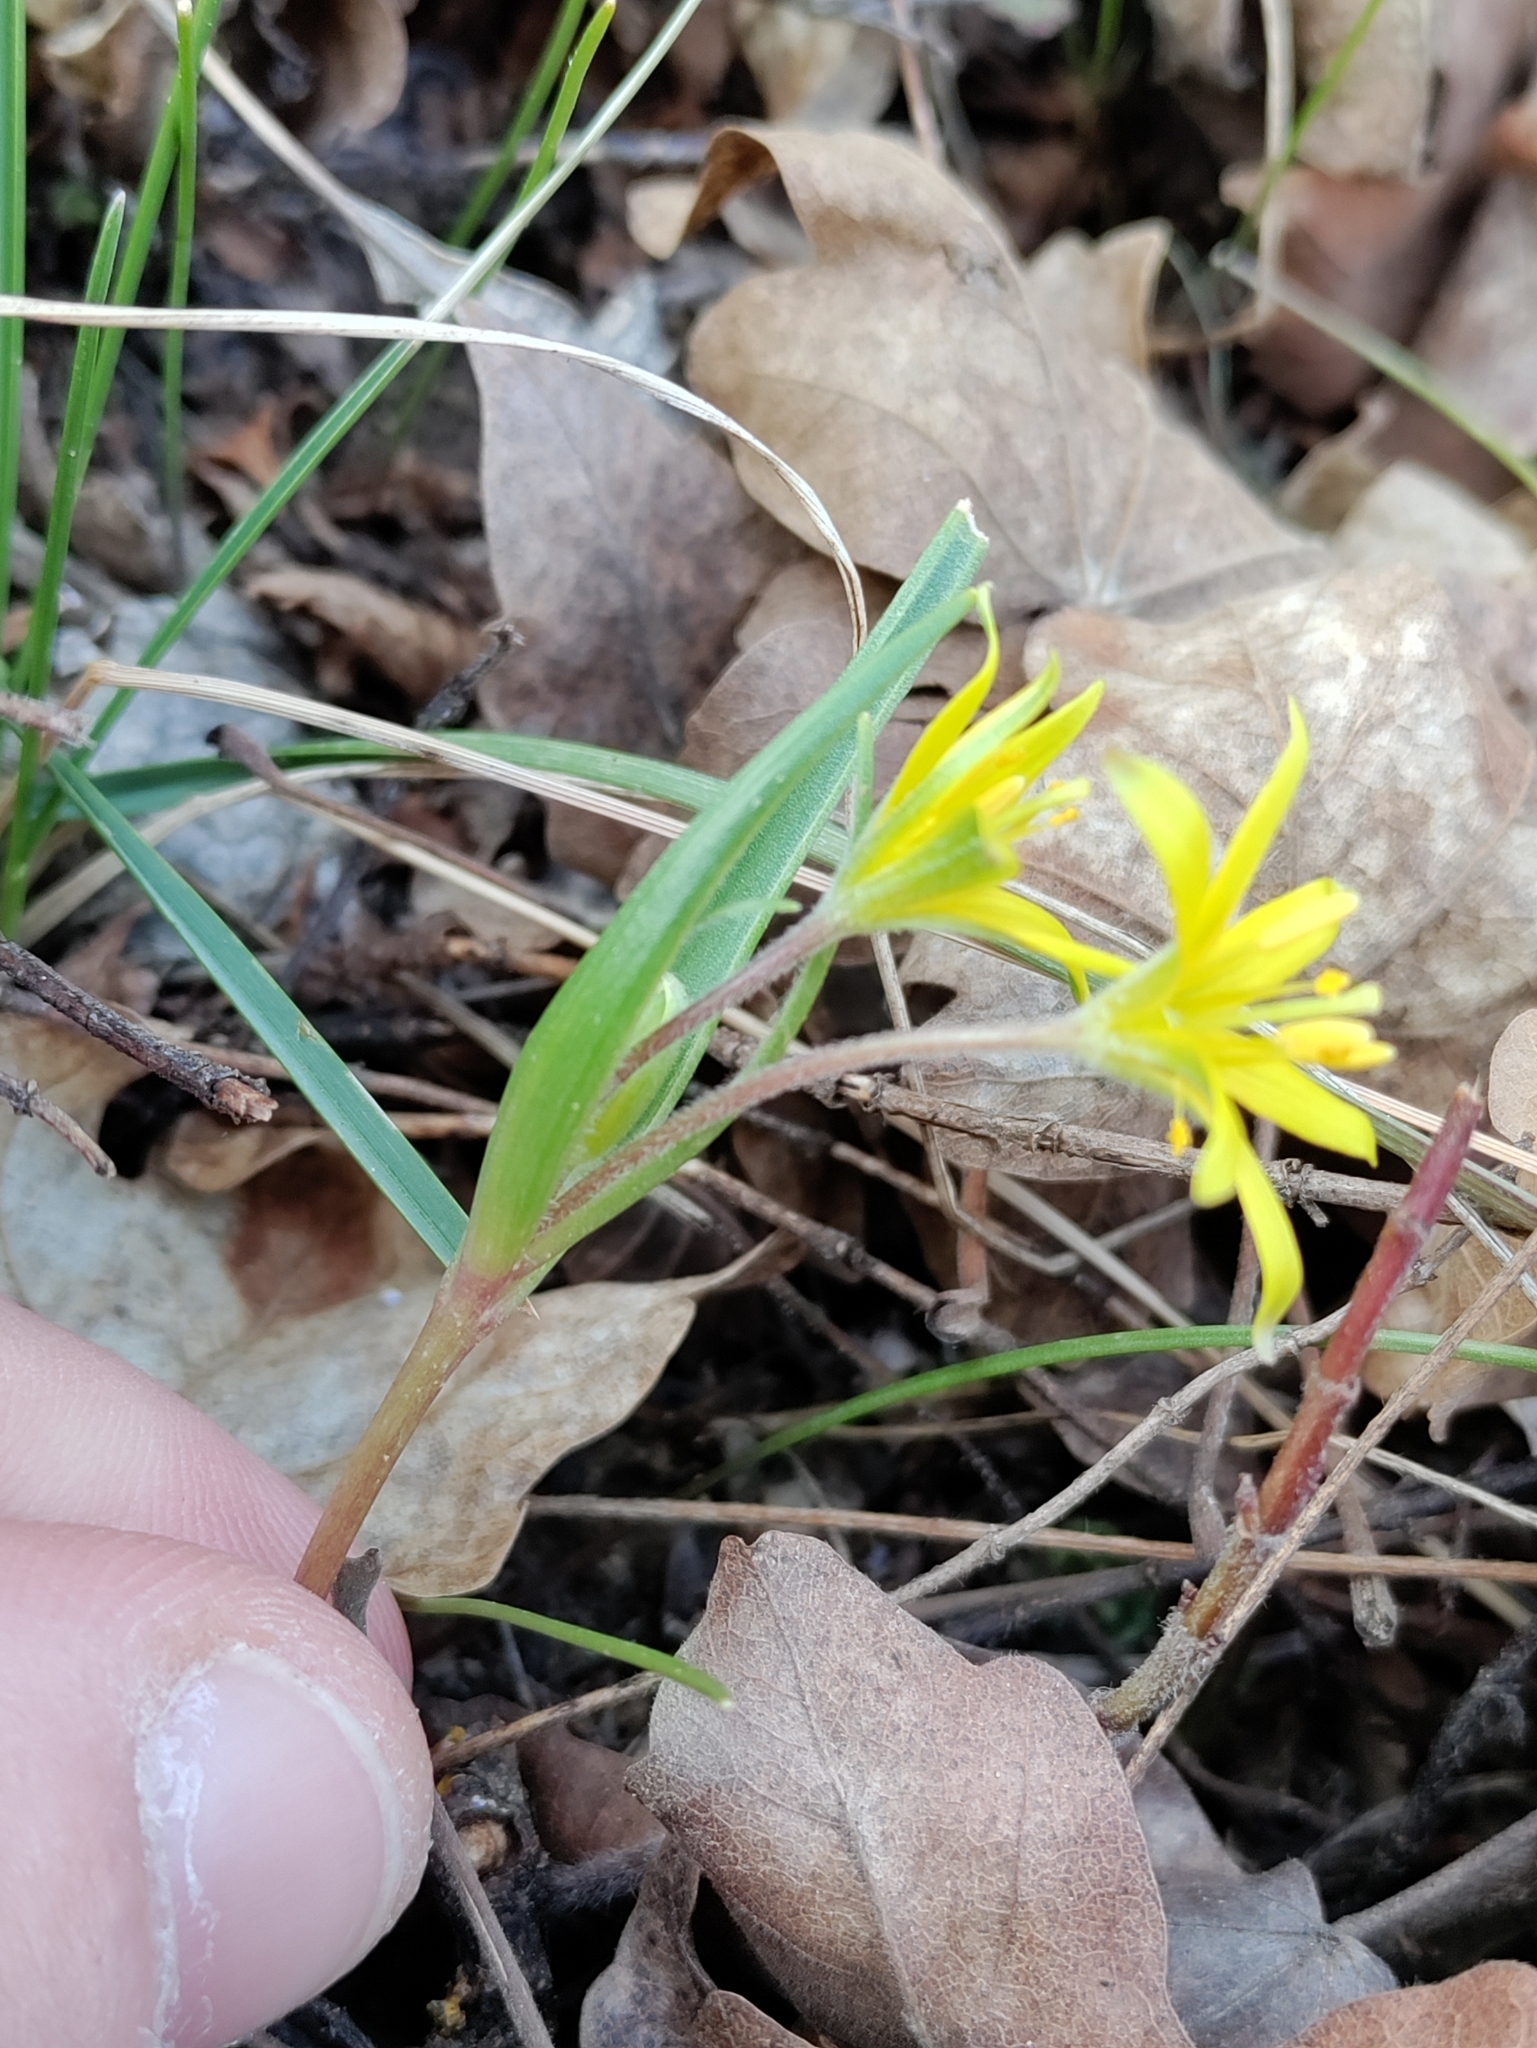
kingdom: Plantae
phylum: Tracheophyta
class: Liliopsida
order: Liliales
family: Liliaceae
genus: Gagea
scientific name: Gagea villosa
